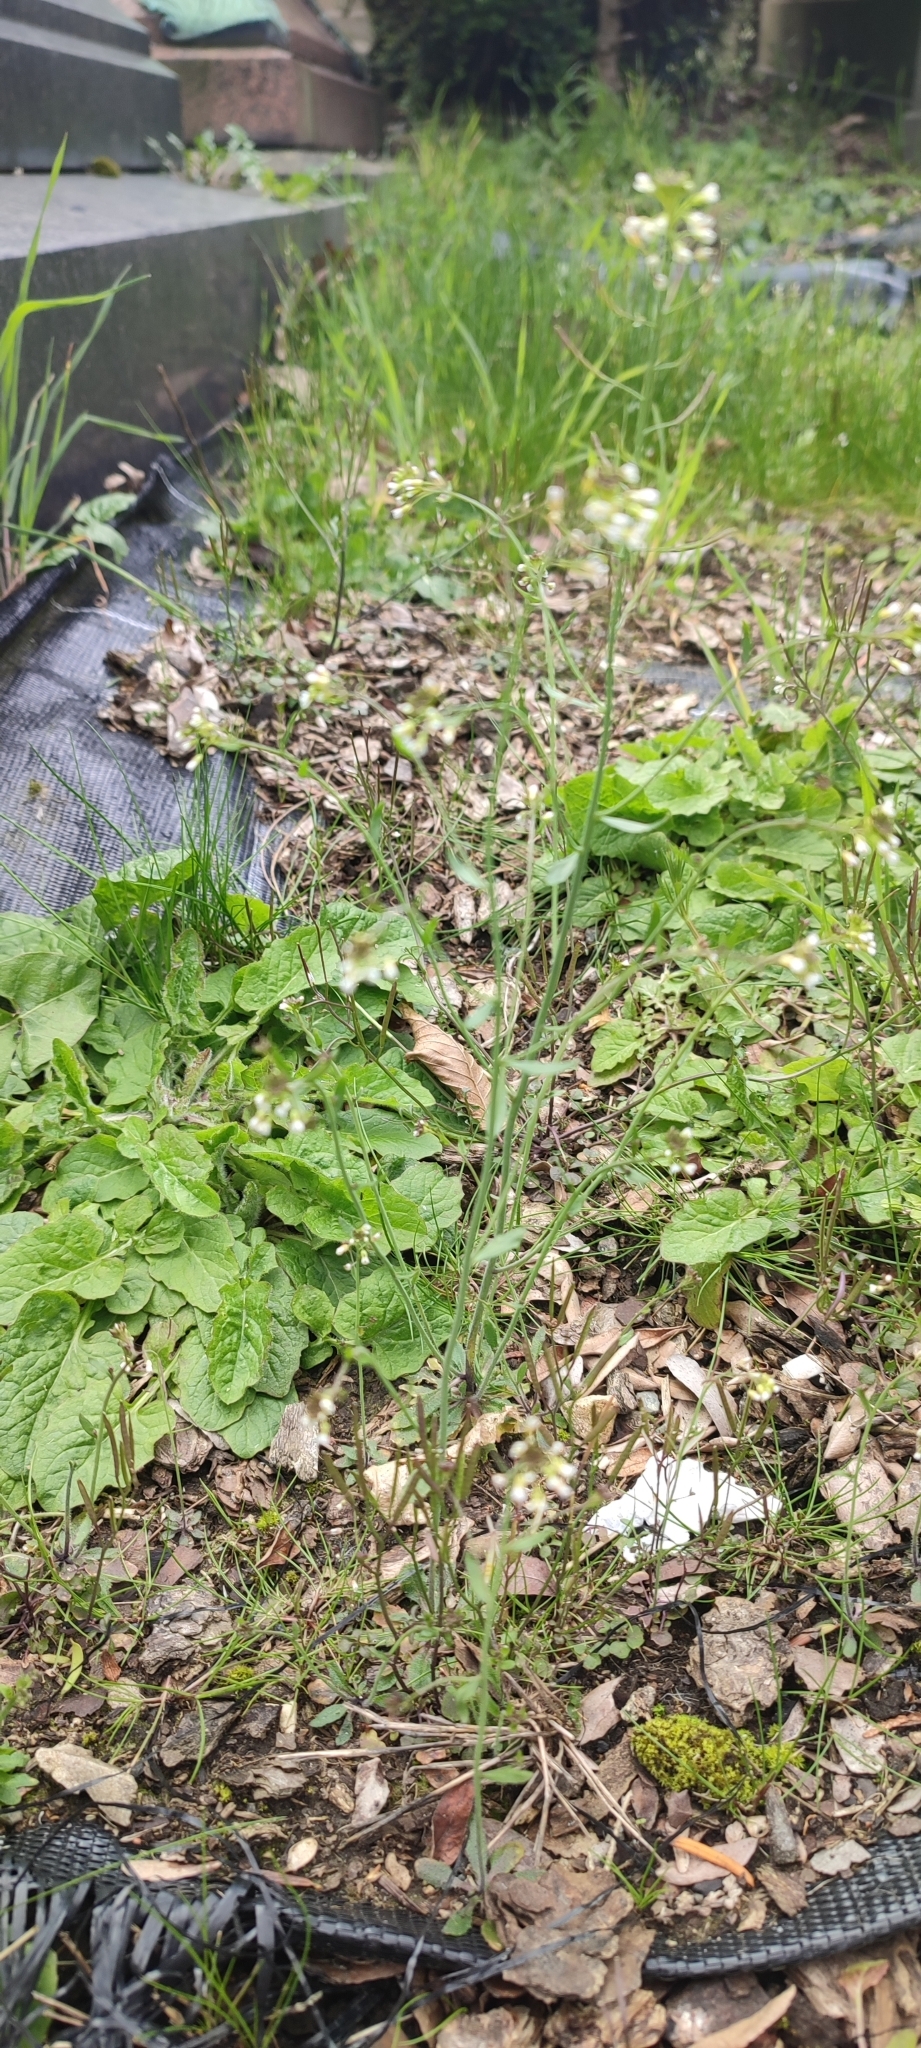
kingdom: Plantae
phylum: Tracheophyta
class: Magnoliopsida
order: Brassicales
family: Brassicaceae
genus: Arabidopsis
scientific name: Arabidopsis thaliana
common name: Thale cress
